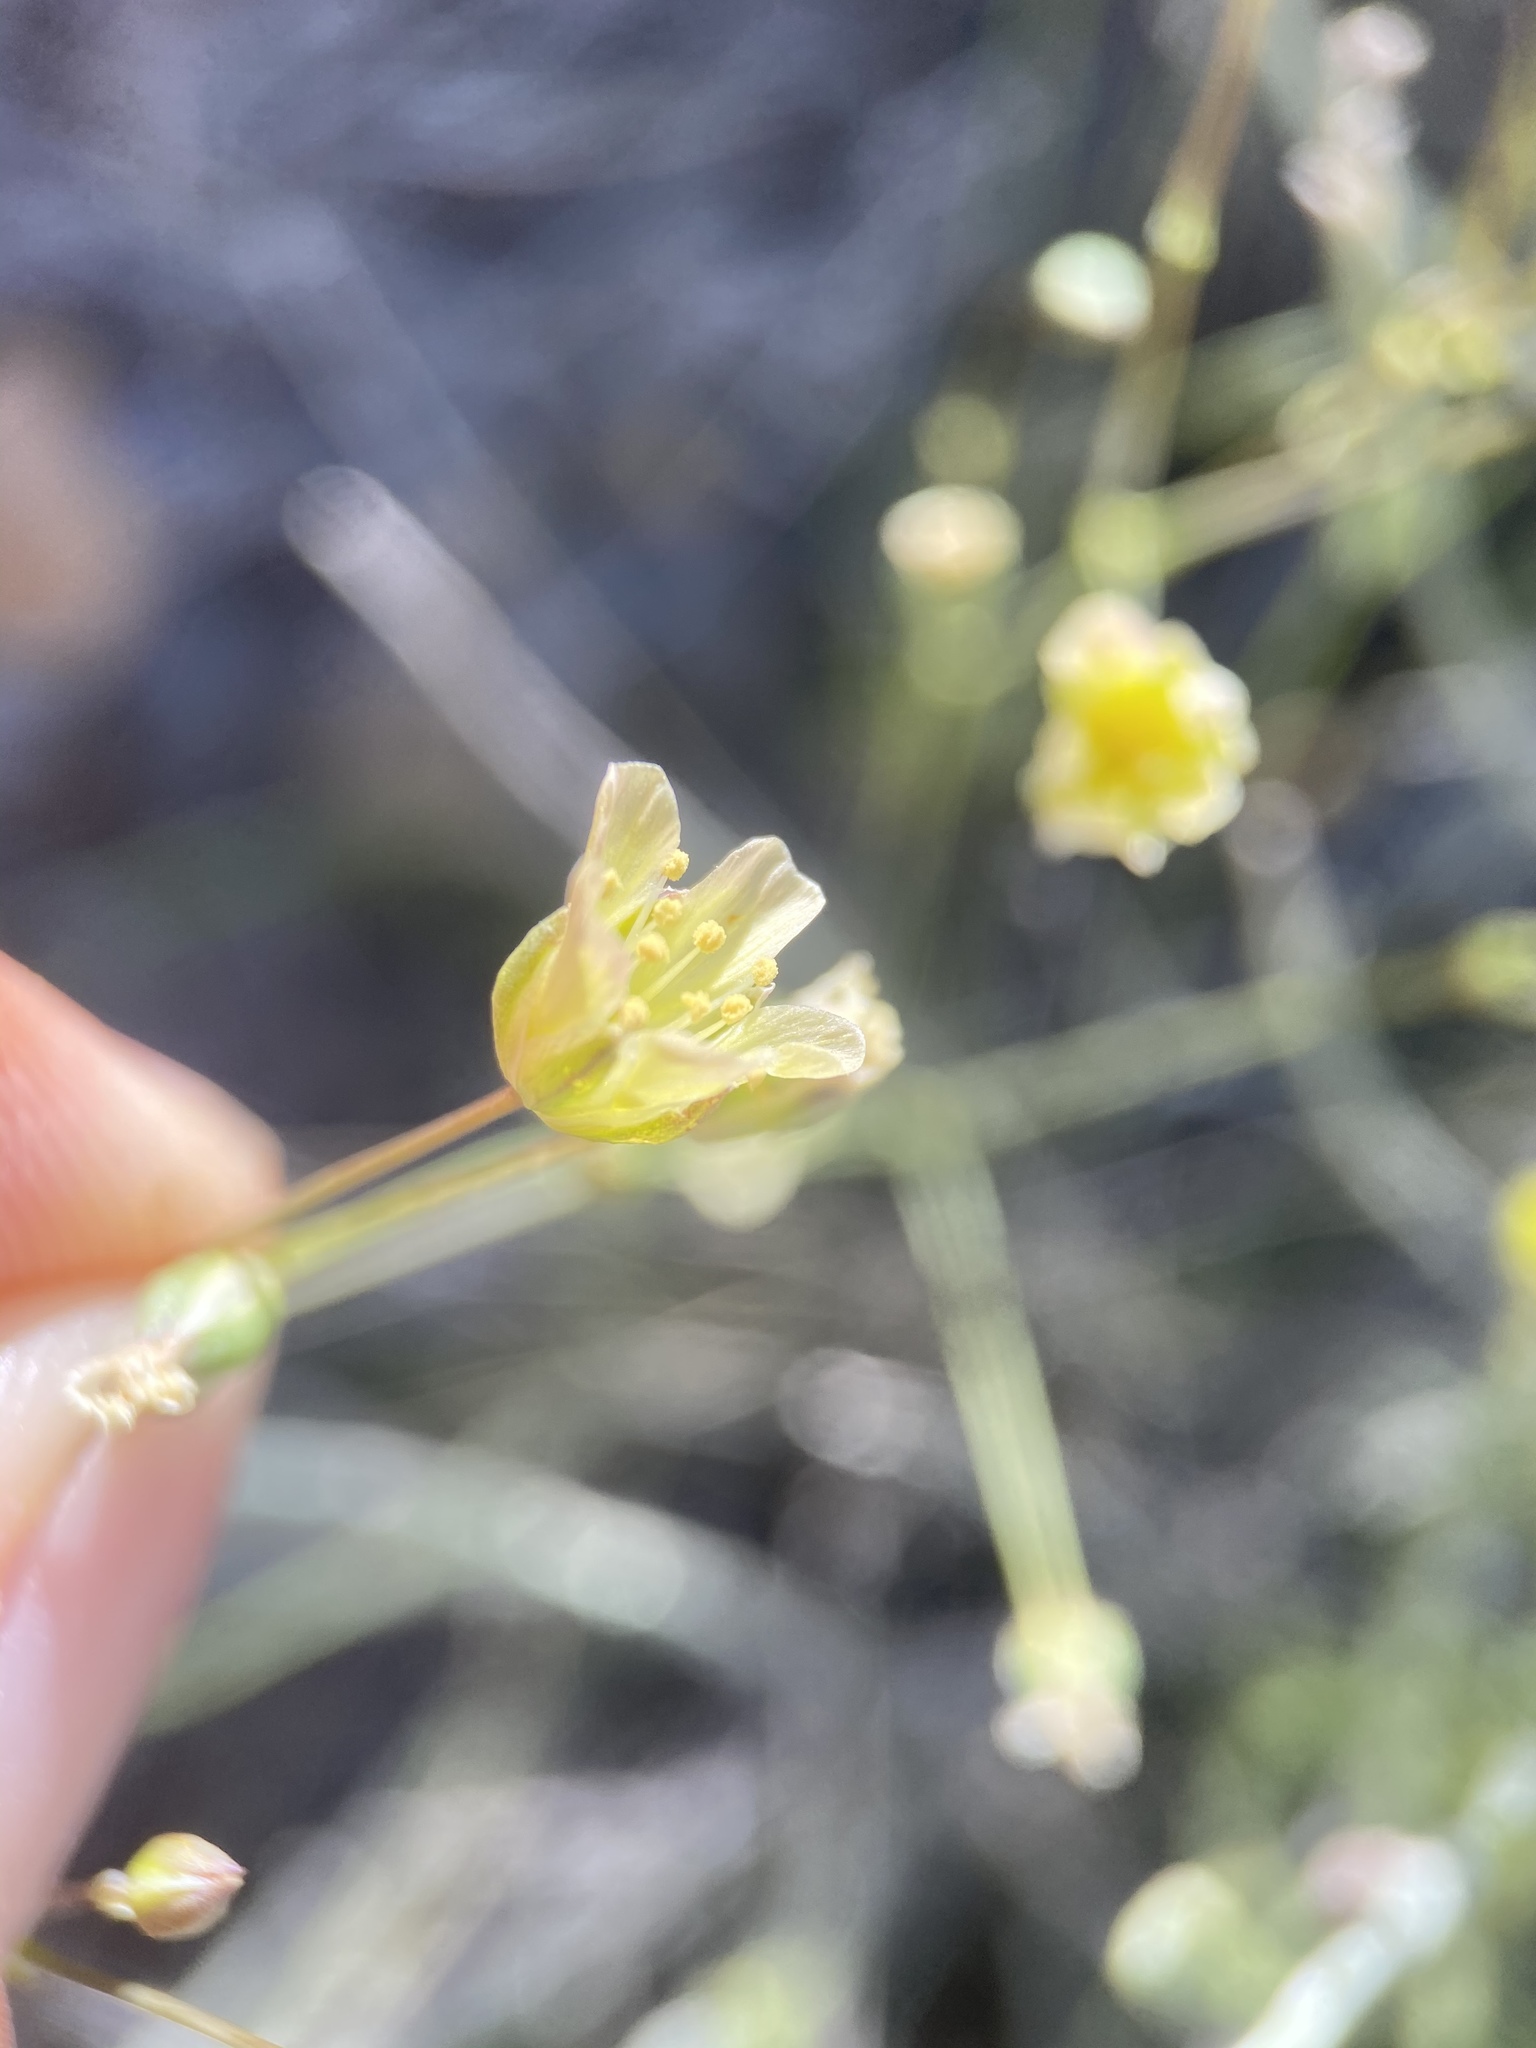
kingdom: Plantae
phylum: Tracheophyta
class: Magnoliopsida
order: Caryophyllales
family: Caryophyllaceae
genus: Eremogone
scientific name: Eremogone macradenia
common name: Mohave sandwort
